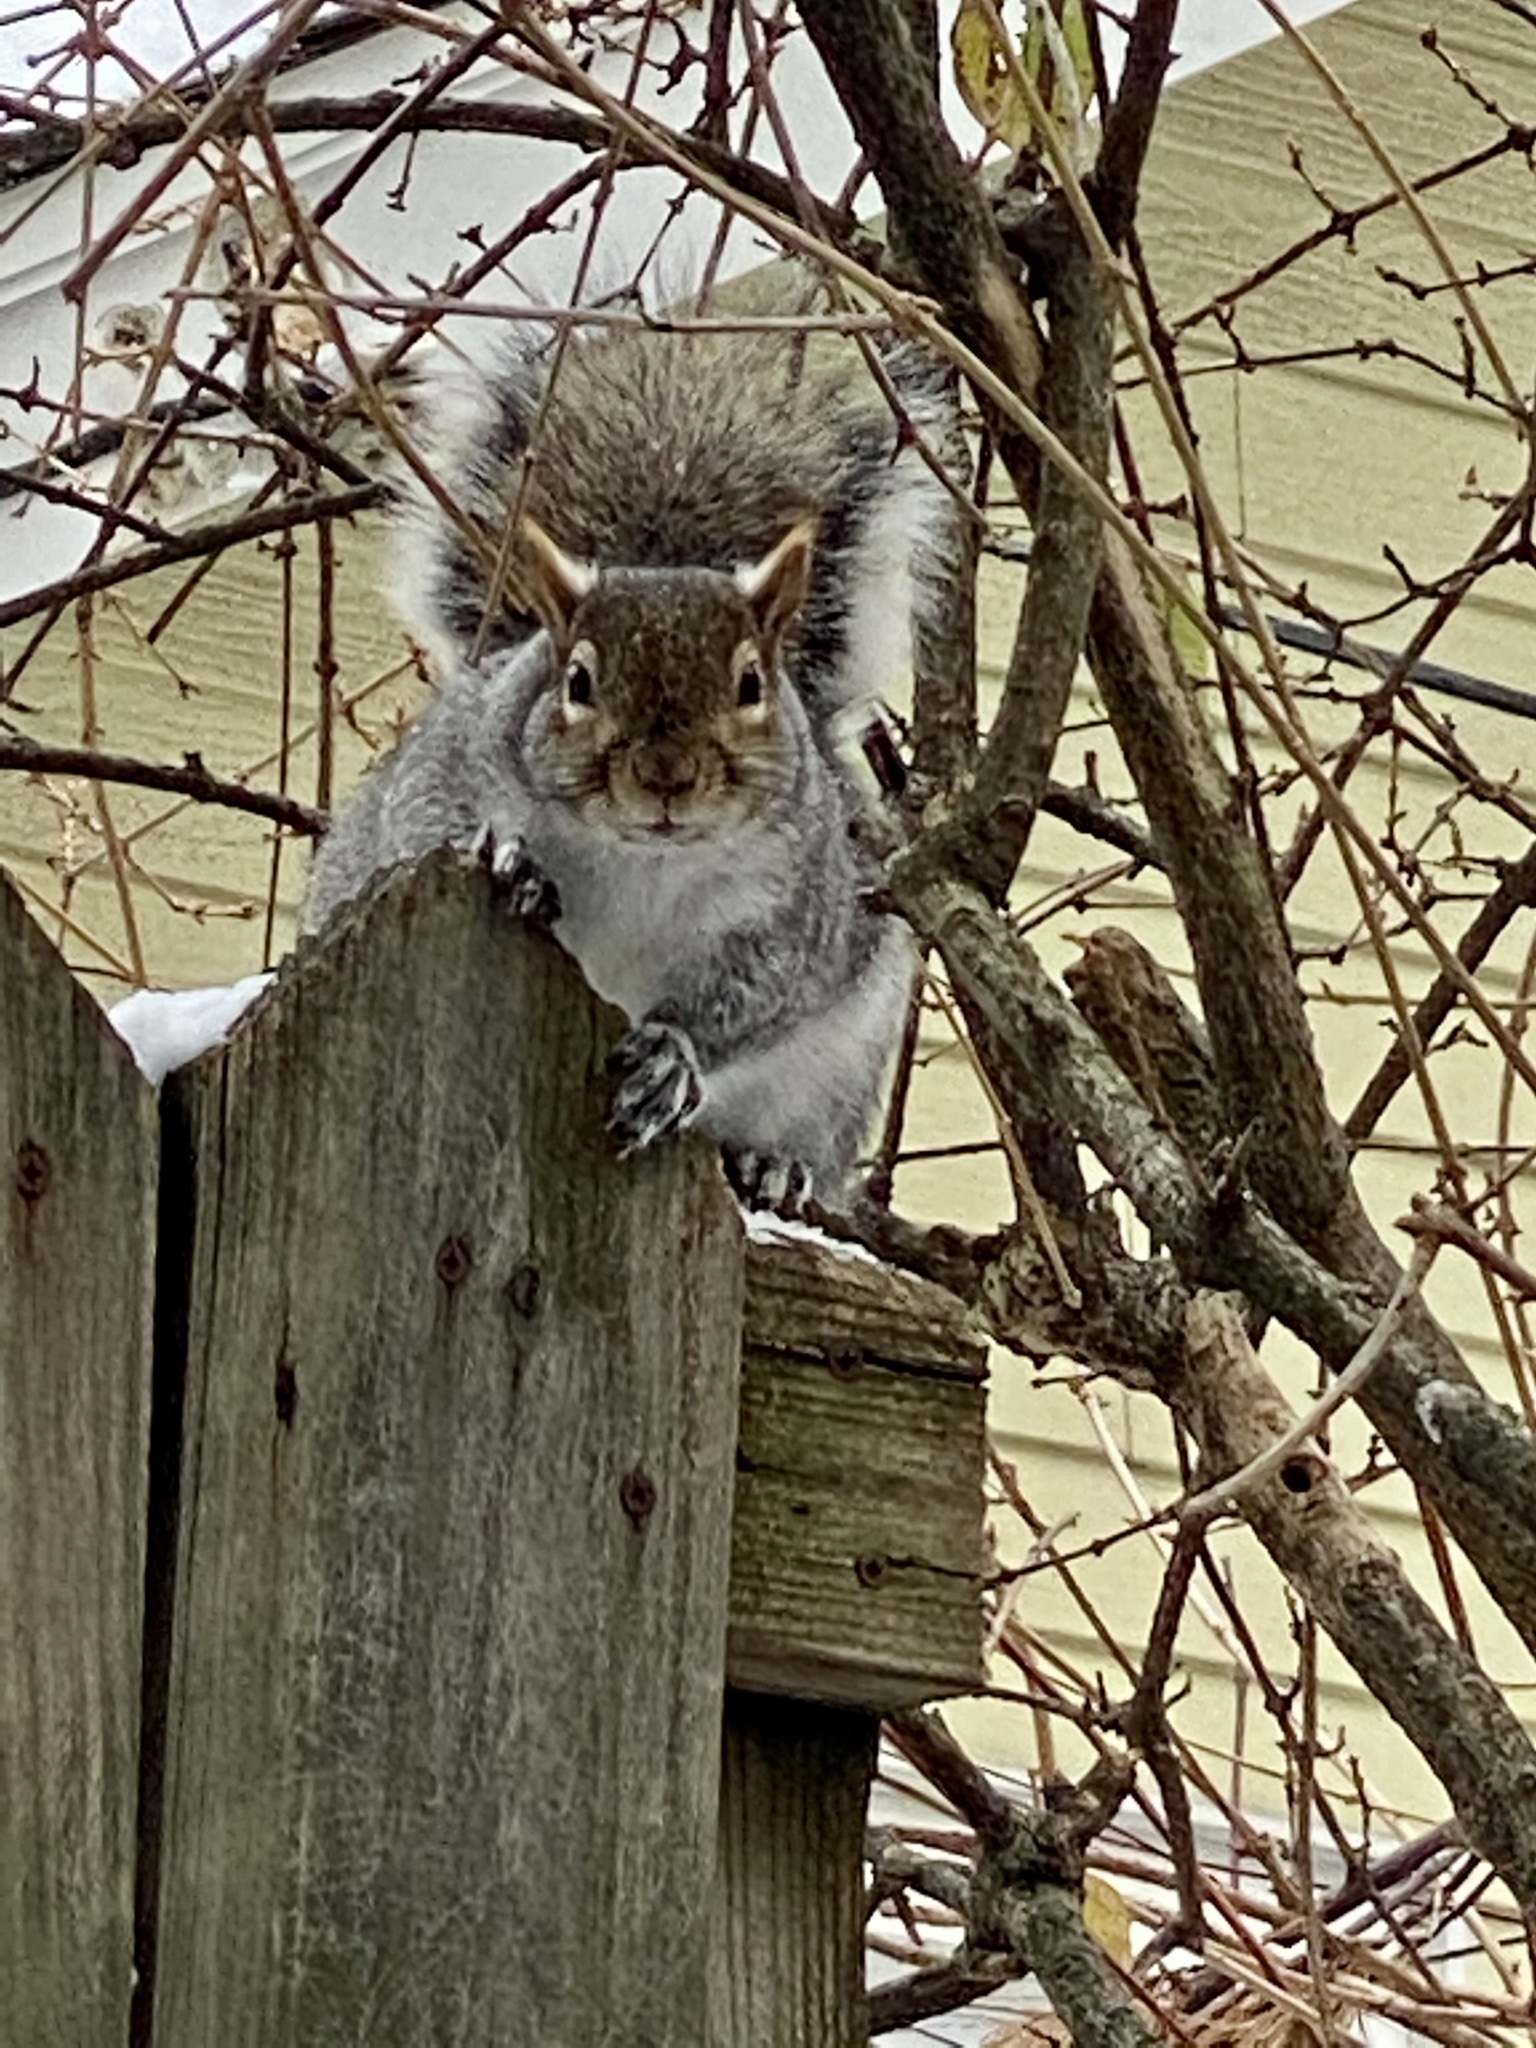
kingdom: Animalia
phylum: Chordata
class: Mammalia
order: Rodentia
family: Sciuridae
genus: Sciurus
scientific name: Sciurus carolinensis
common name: Eastern gray squirrel
